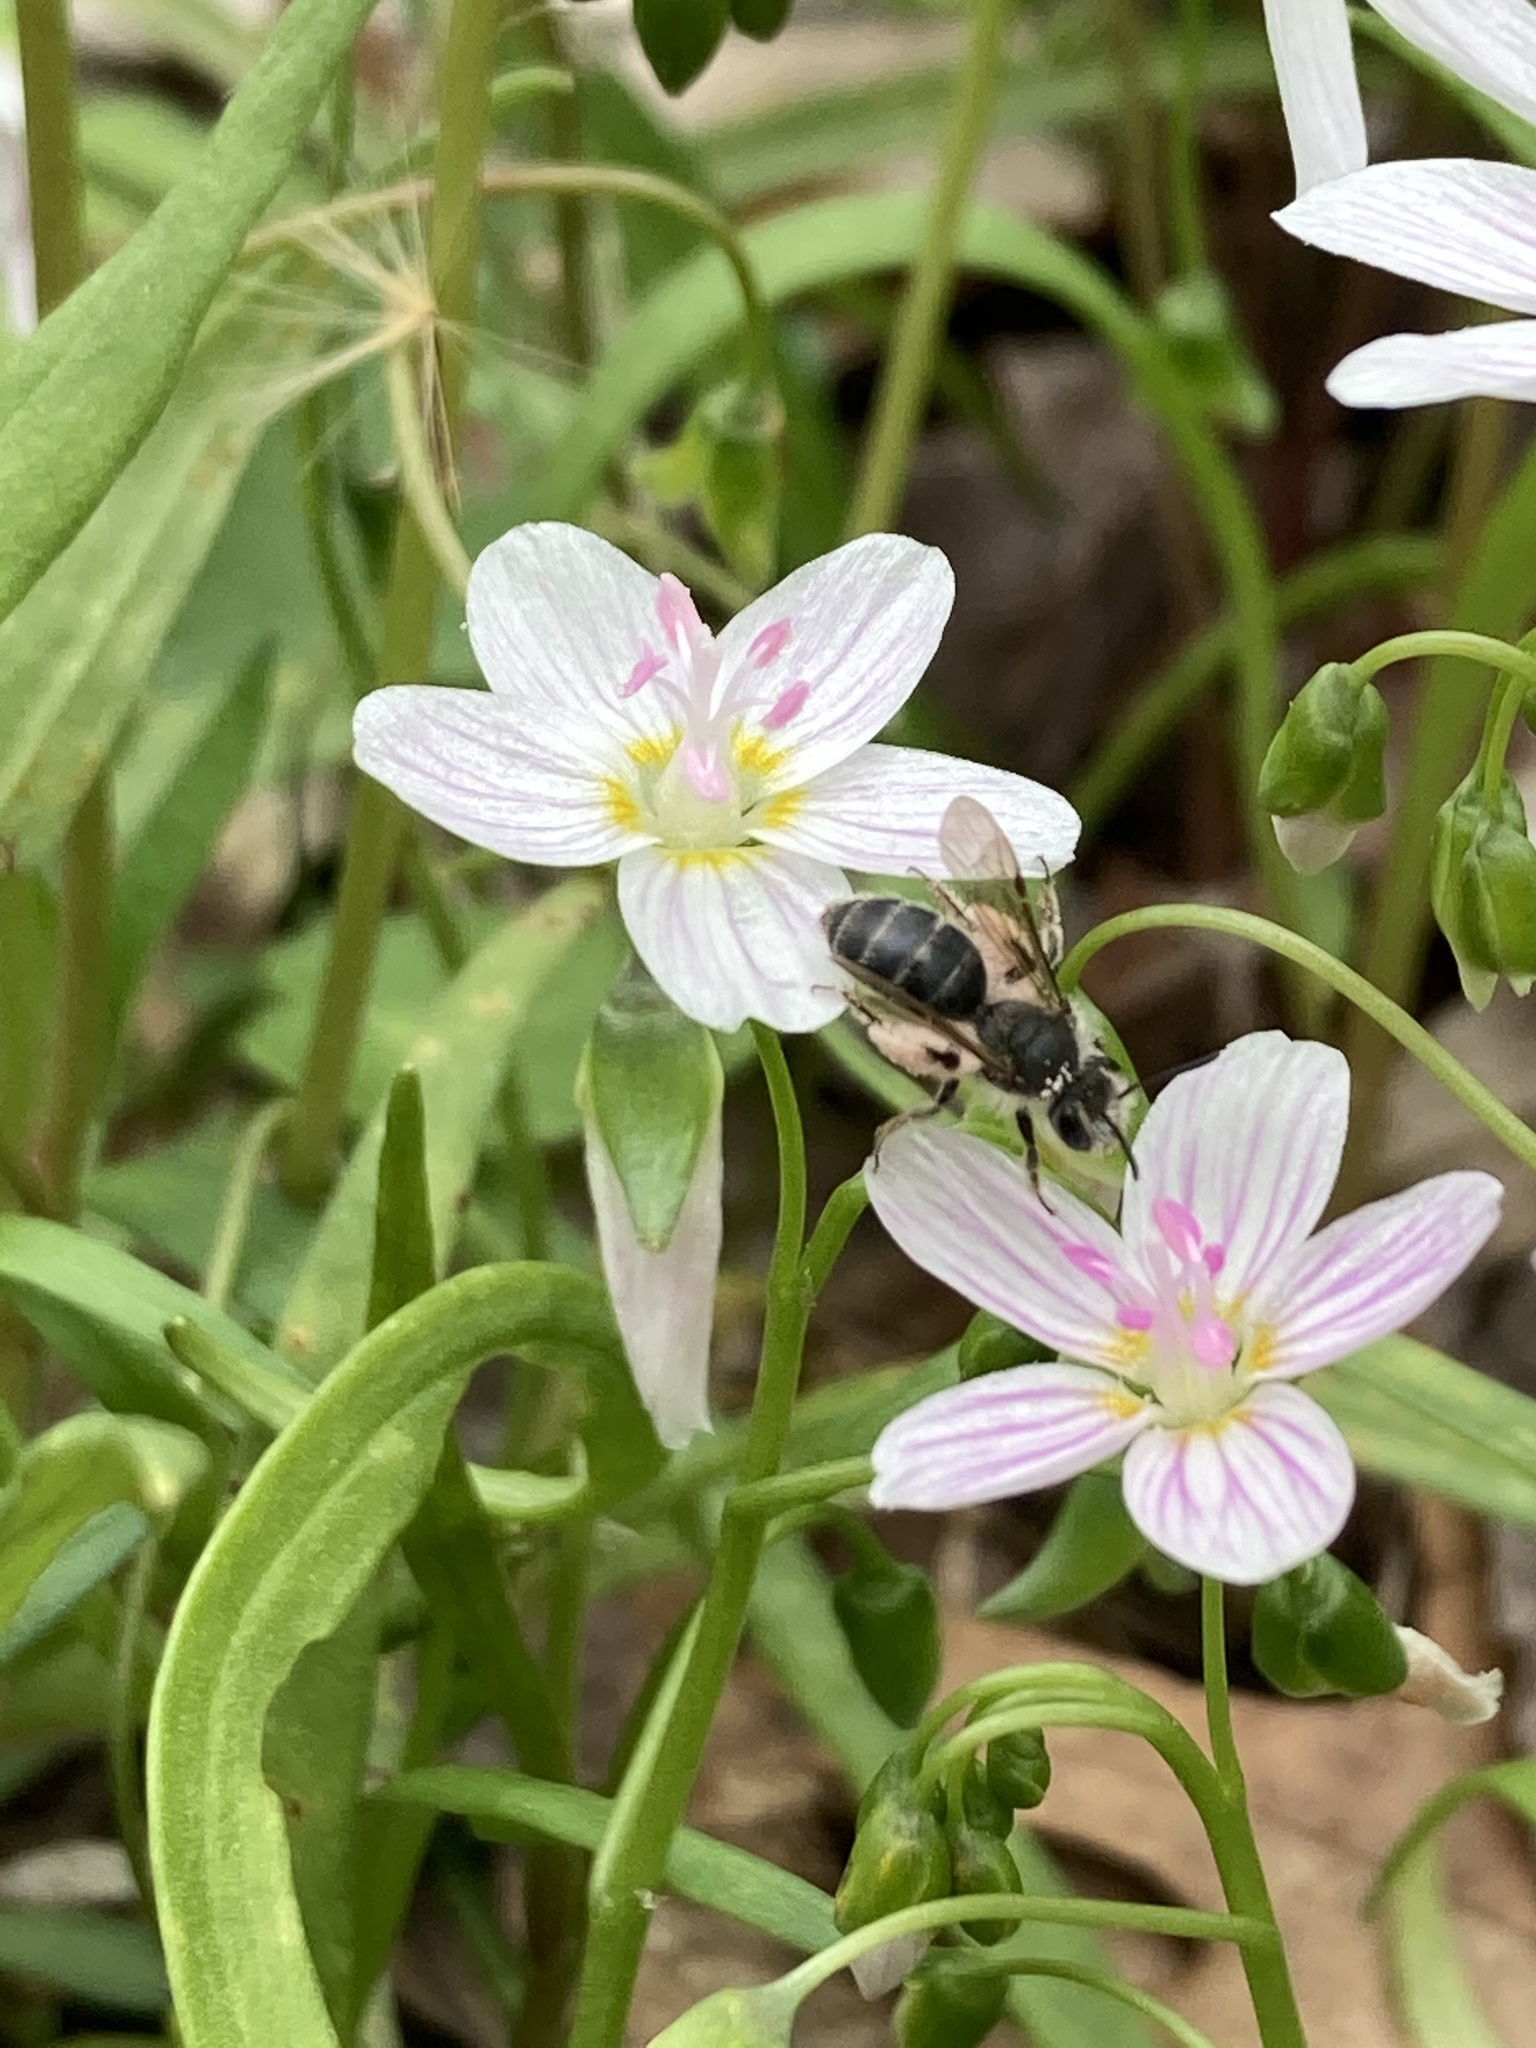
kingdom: Animalia
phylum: Arthropoda
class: Insecta
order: Hymenoptera
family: Andrenidae
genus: Andrena
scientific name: Andrena erigeniae
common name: Spring beauty miner
